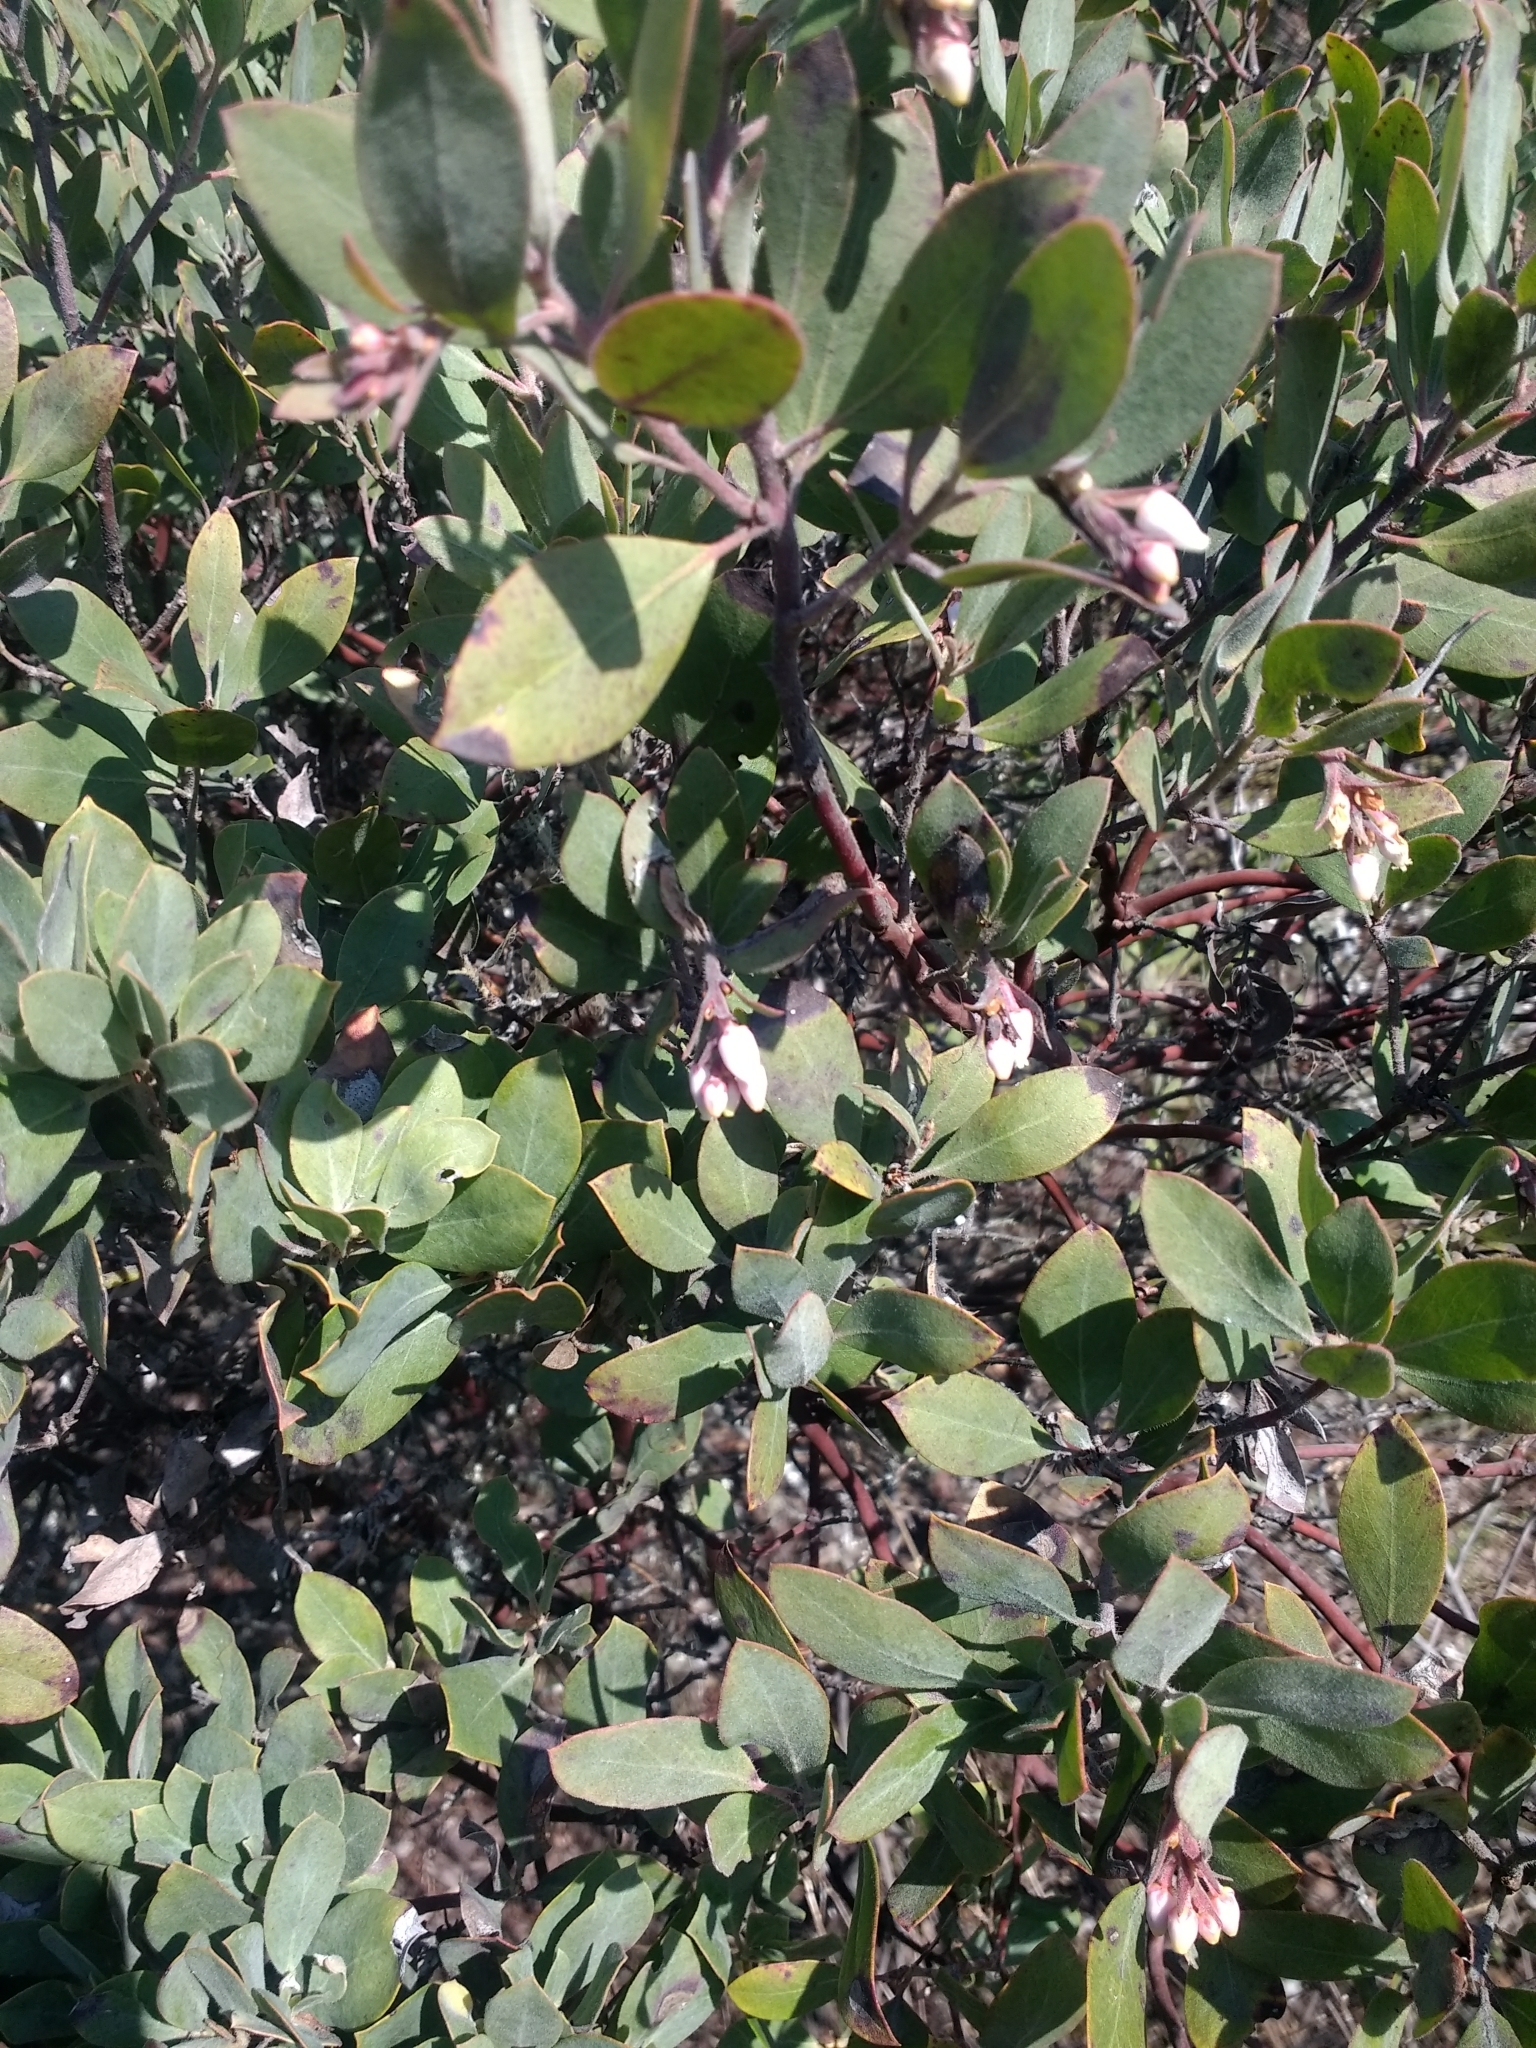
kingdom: Plantae
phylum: Tracheophyta
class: Magnoliopsida
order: Ericales
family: Ericaceae
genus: Arctostaphylos
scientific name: Arctostaphylos columbiana
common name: Bristly bearberry
